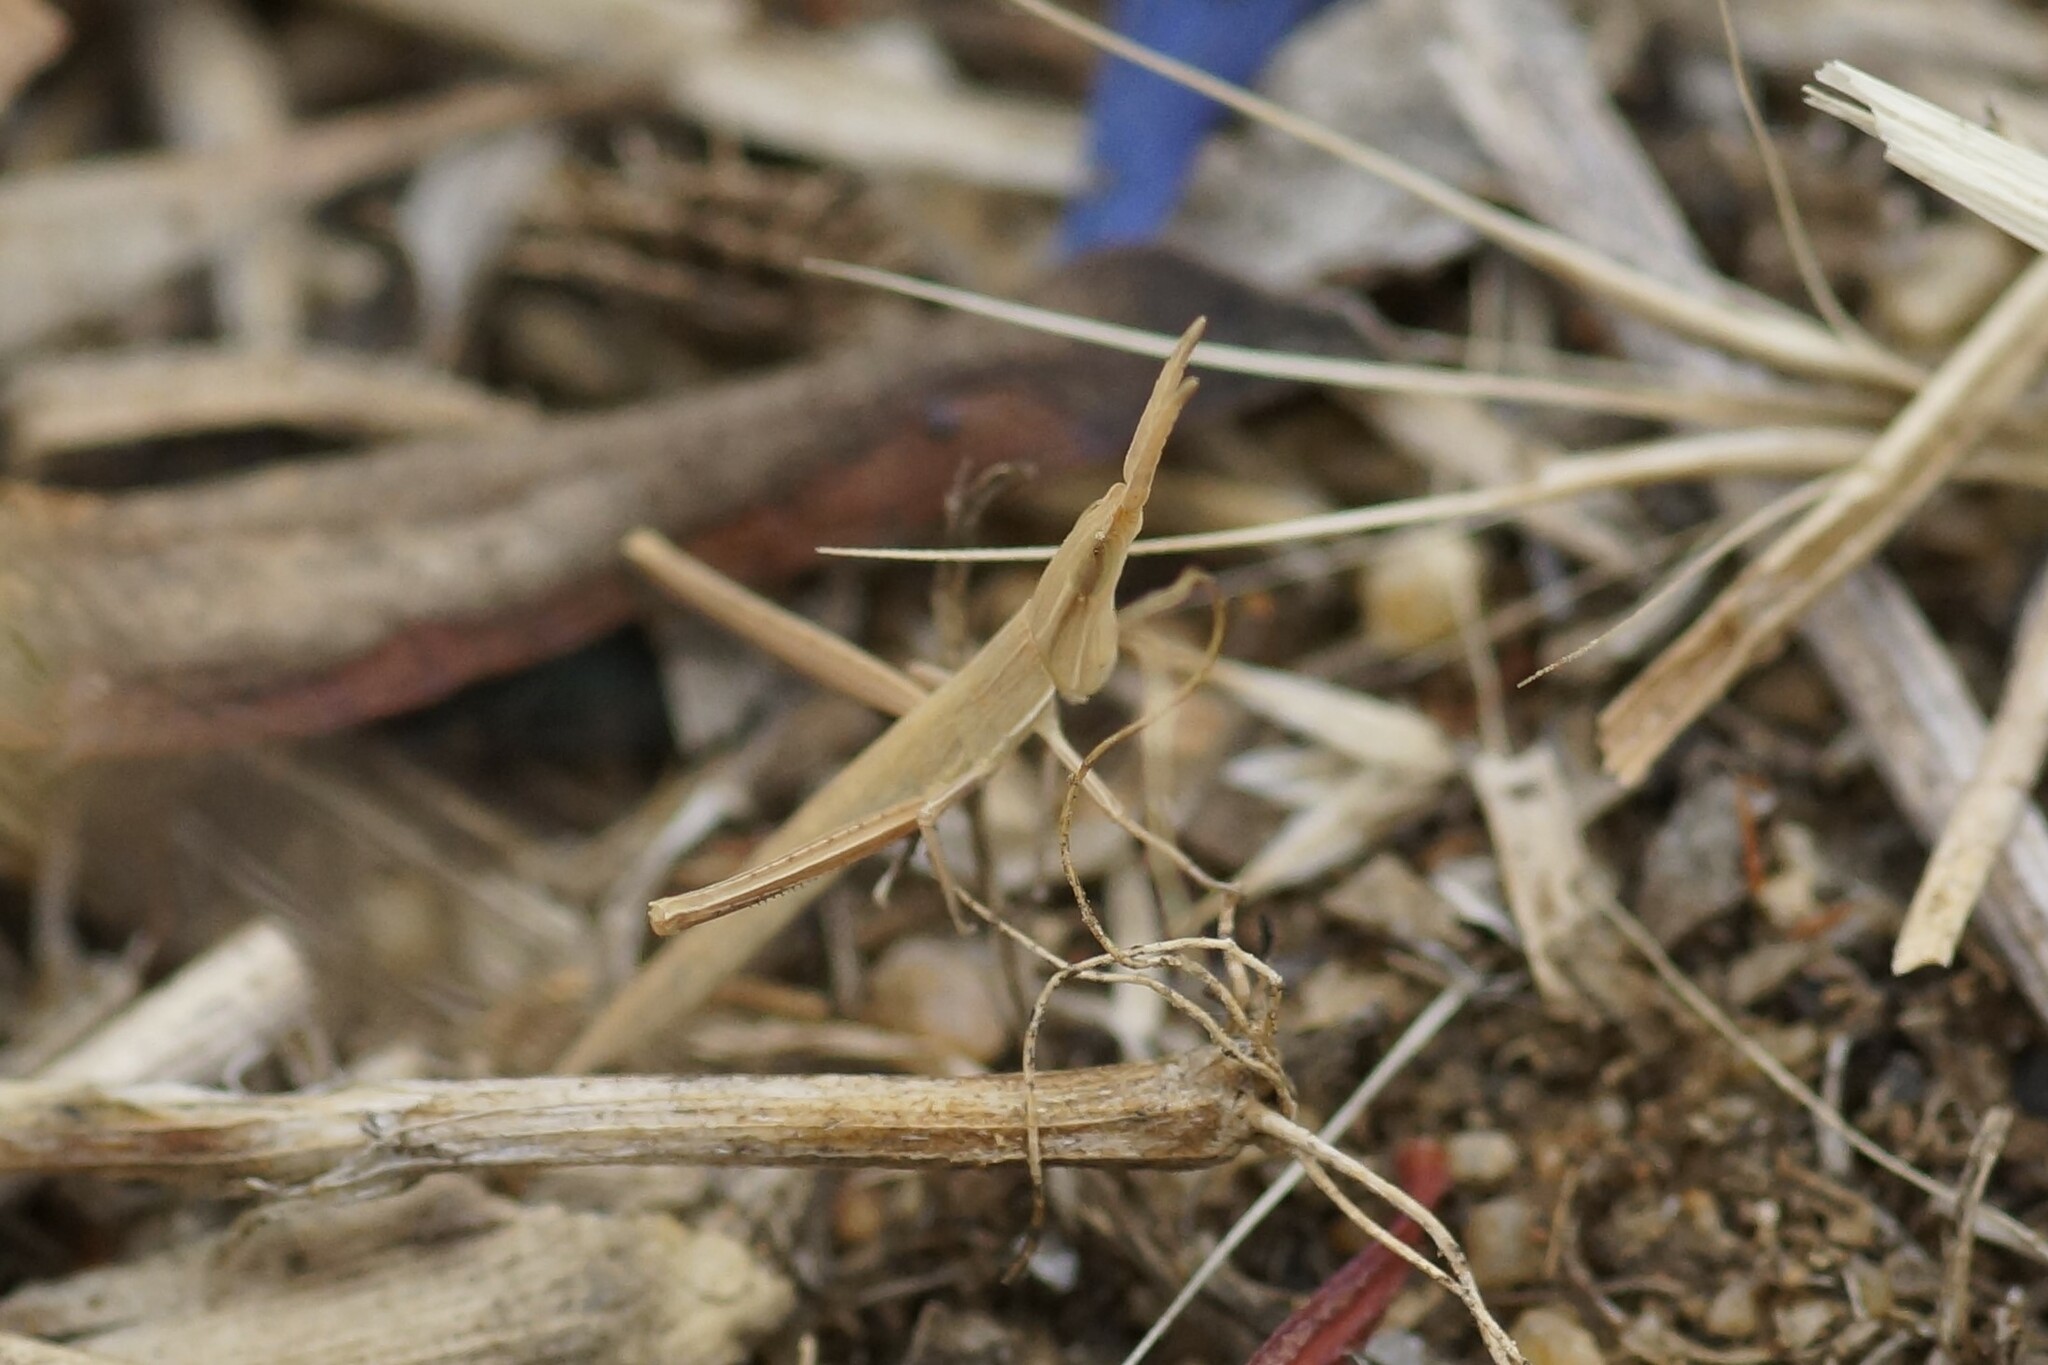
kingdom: Animalia
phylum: Arthropoda
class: Insecta
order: Orthoptera
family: Acrididae
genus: Acrida
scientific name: Acrida conica
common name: Giant green slantface
